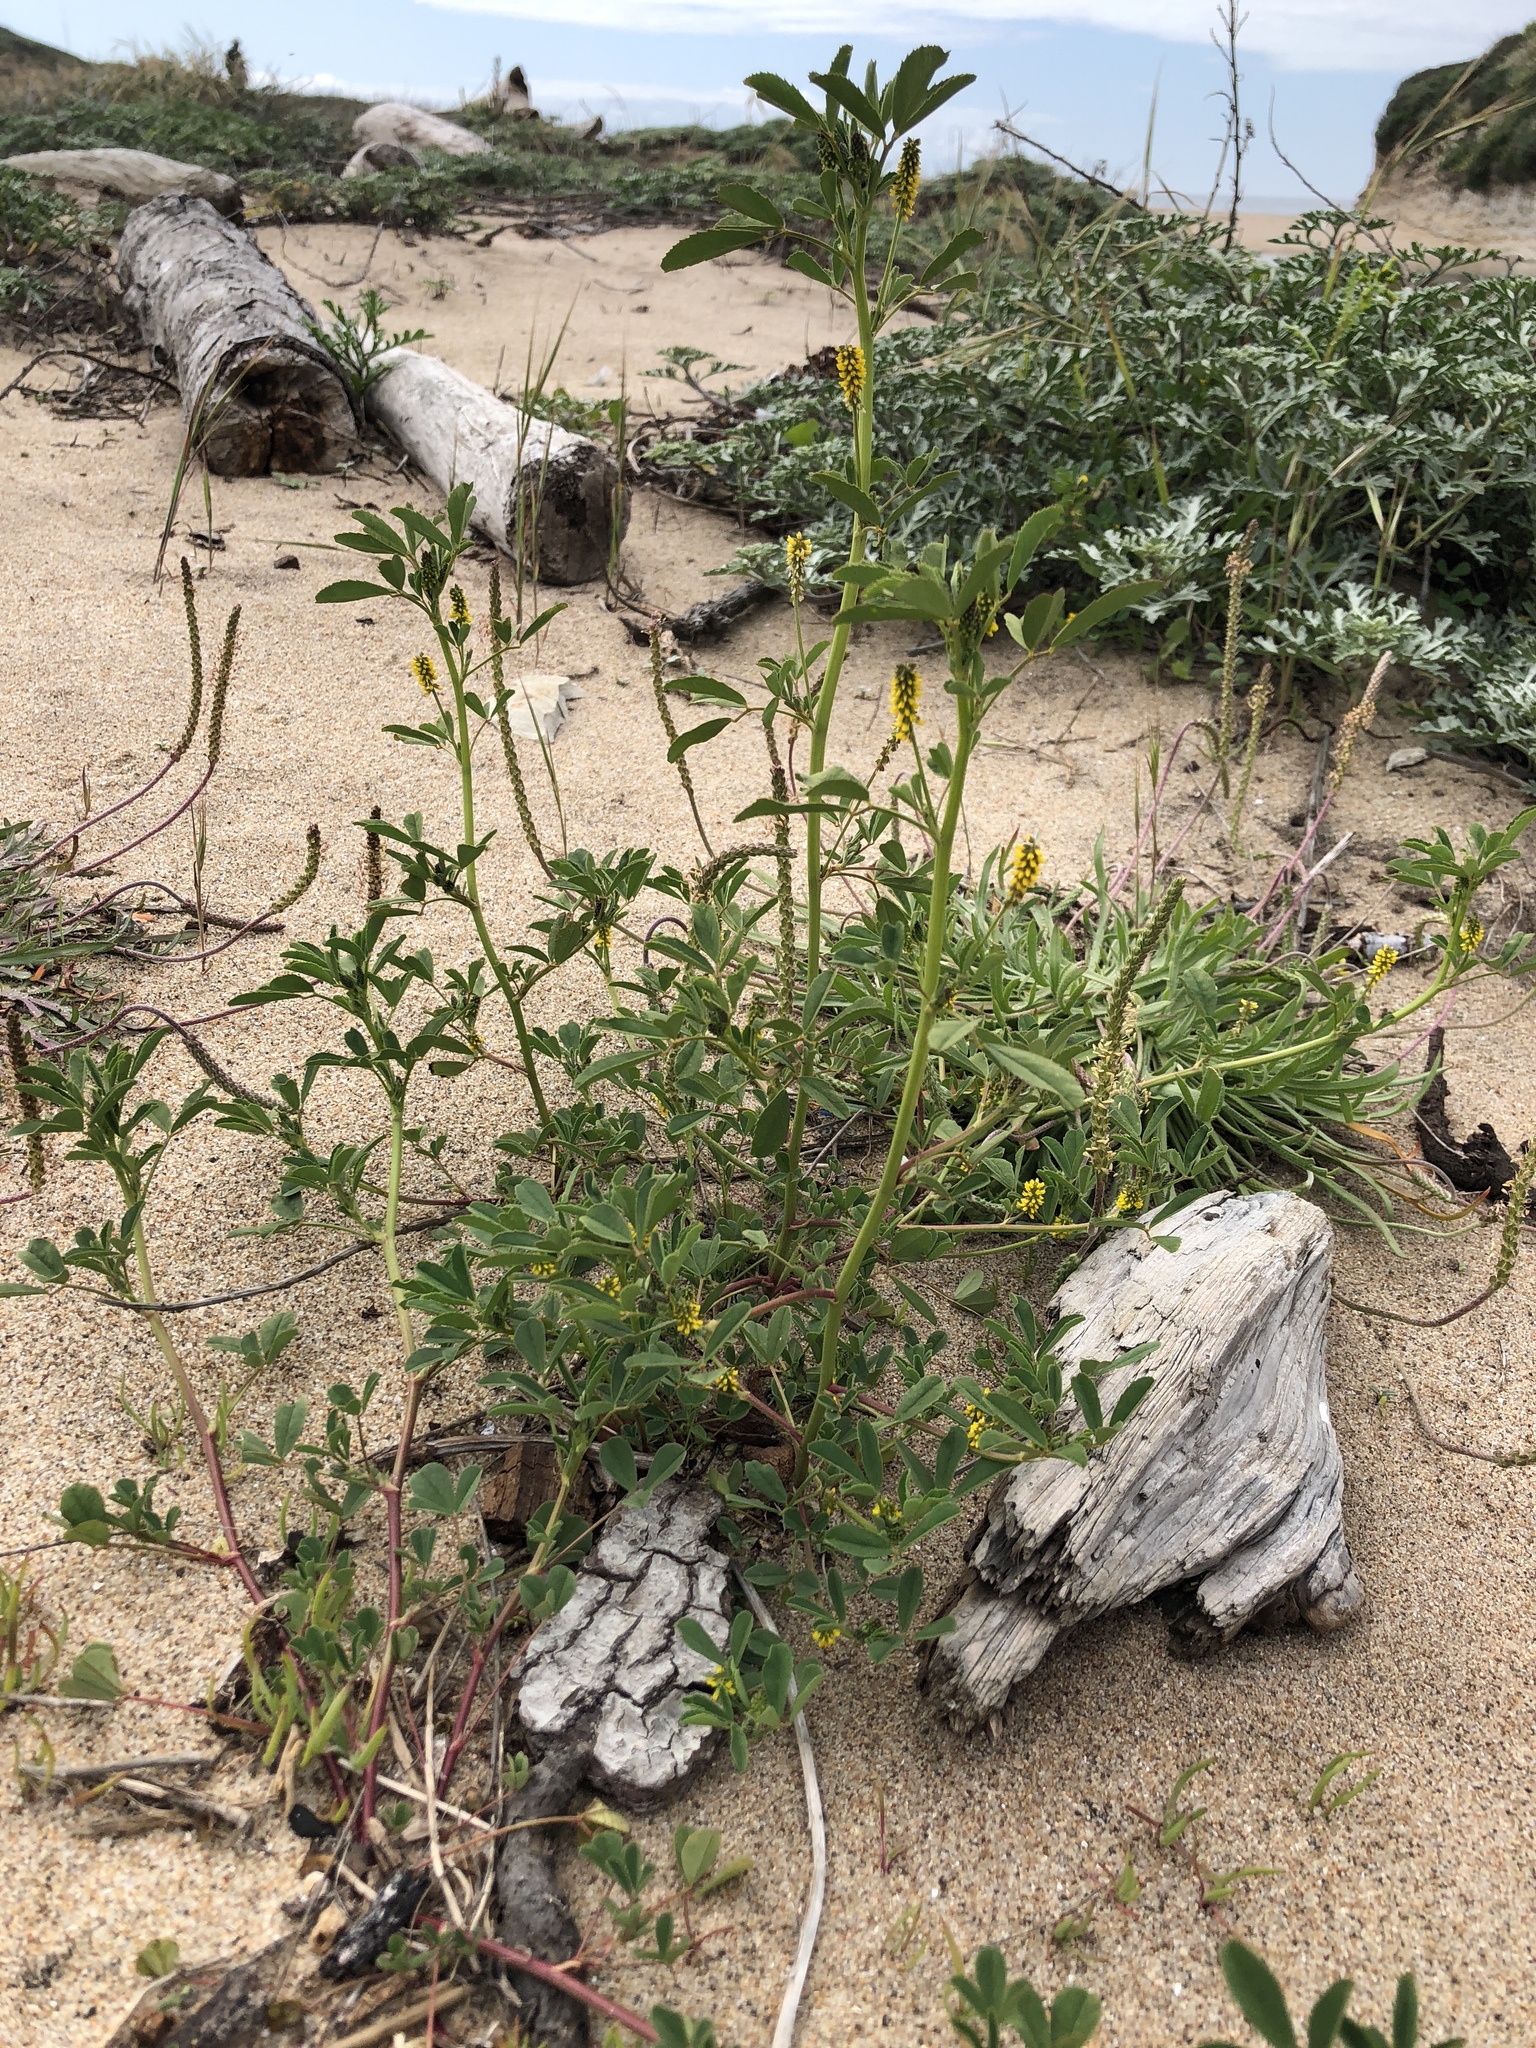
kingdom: Plantae
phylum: Tracheophyta
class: Magnoliopsida
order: Fabales
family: Fabaceae
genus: Melilotus
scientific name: Melilotus indicus
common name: Small melilot
